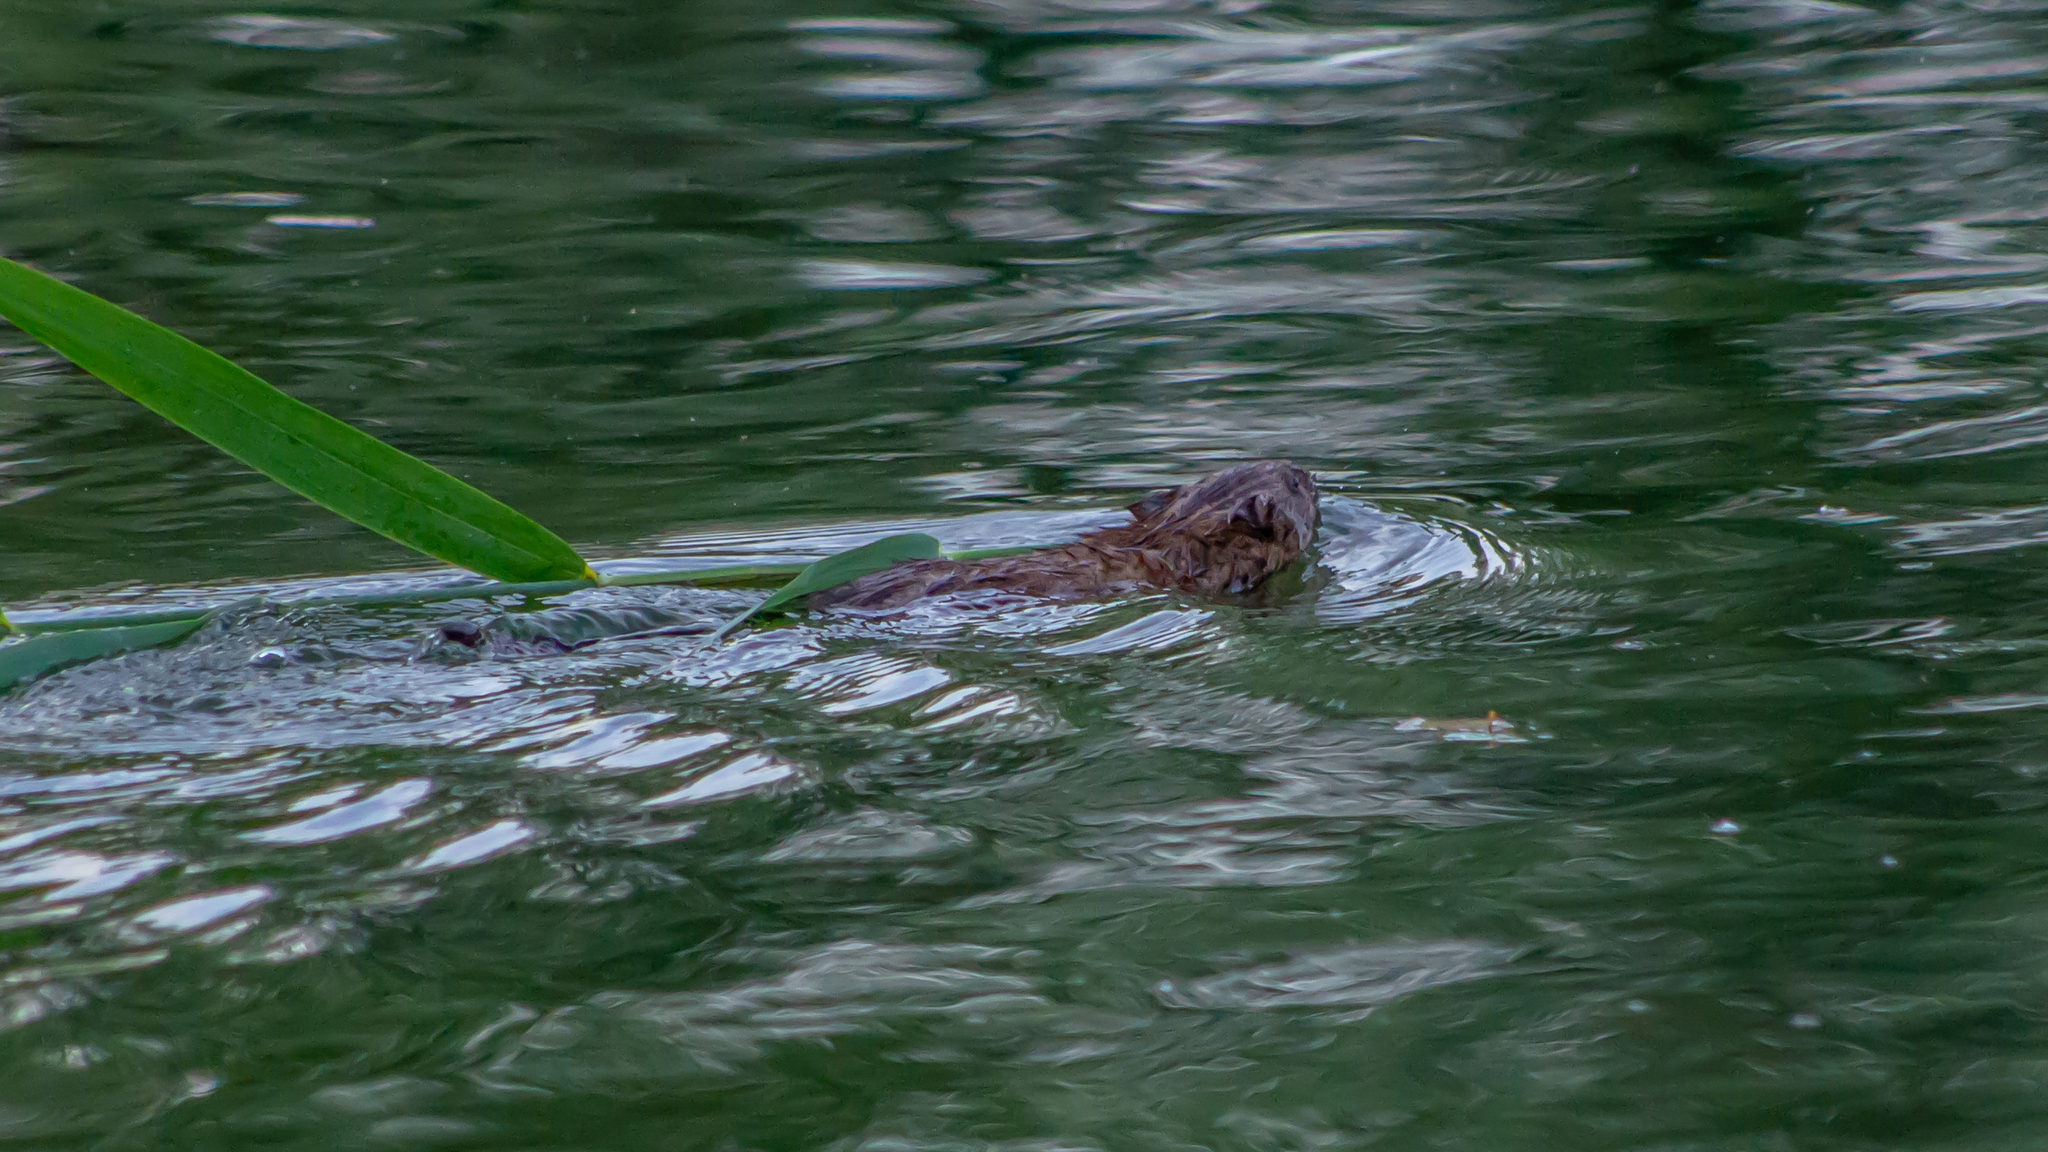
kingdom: Animalia
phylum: Chordata
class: Mammalia
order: Rodentia
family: Cricetidae
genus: Ondatra
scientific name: Ondatra zibethicus
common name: Muskrat
